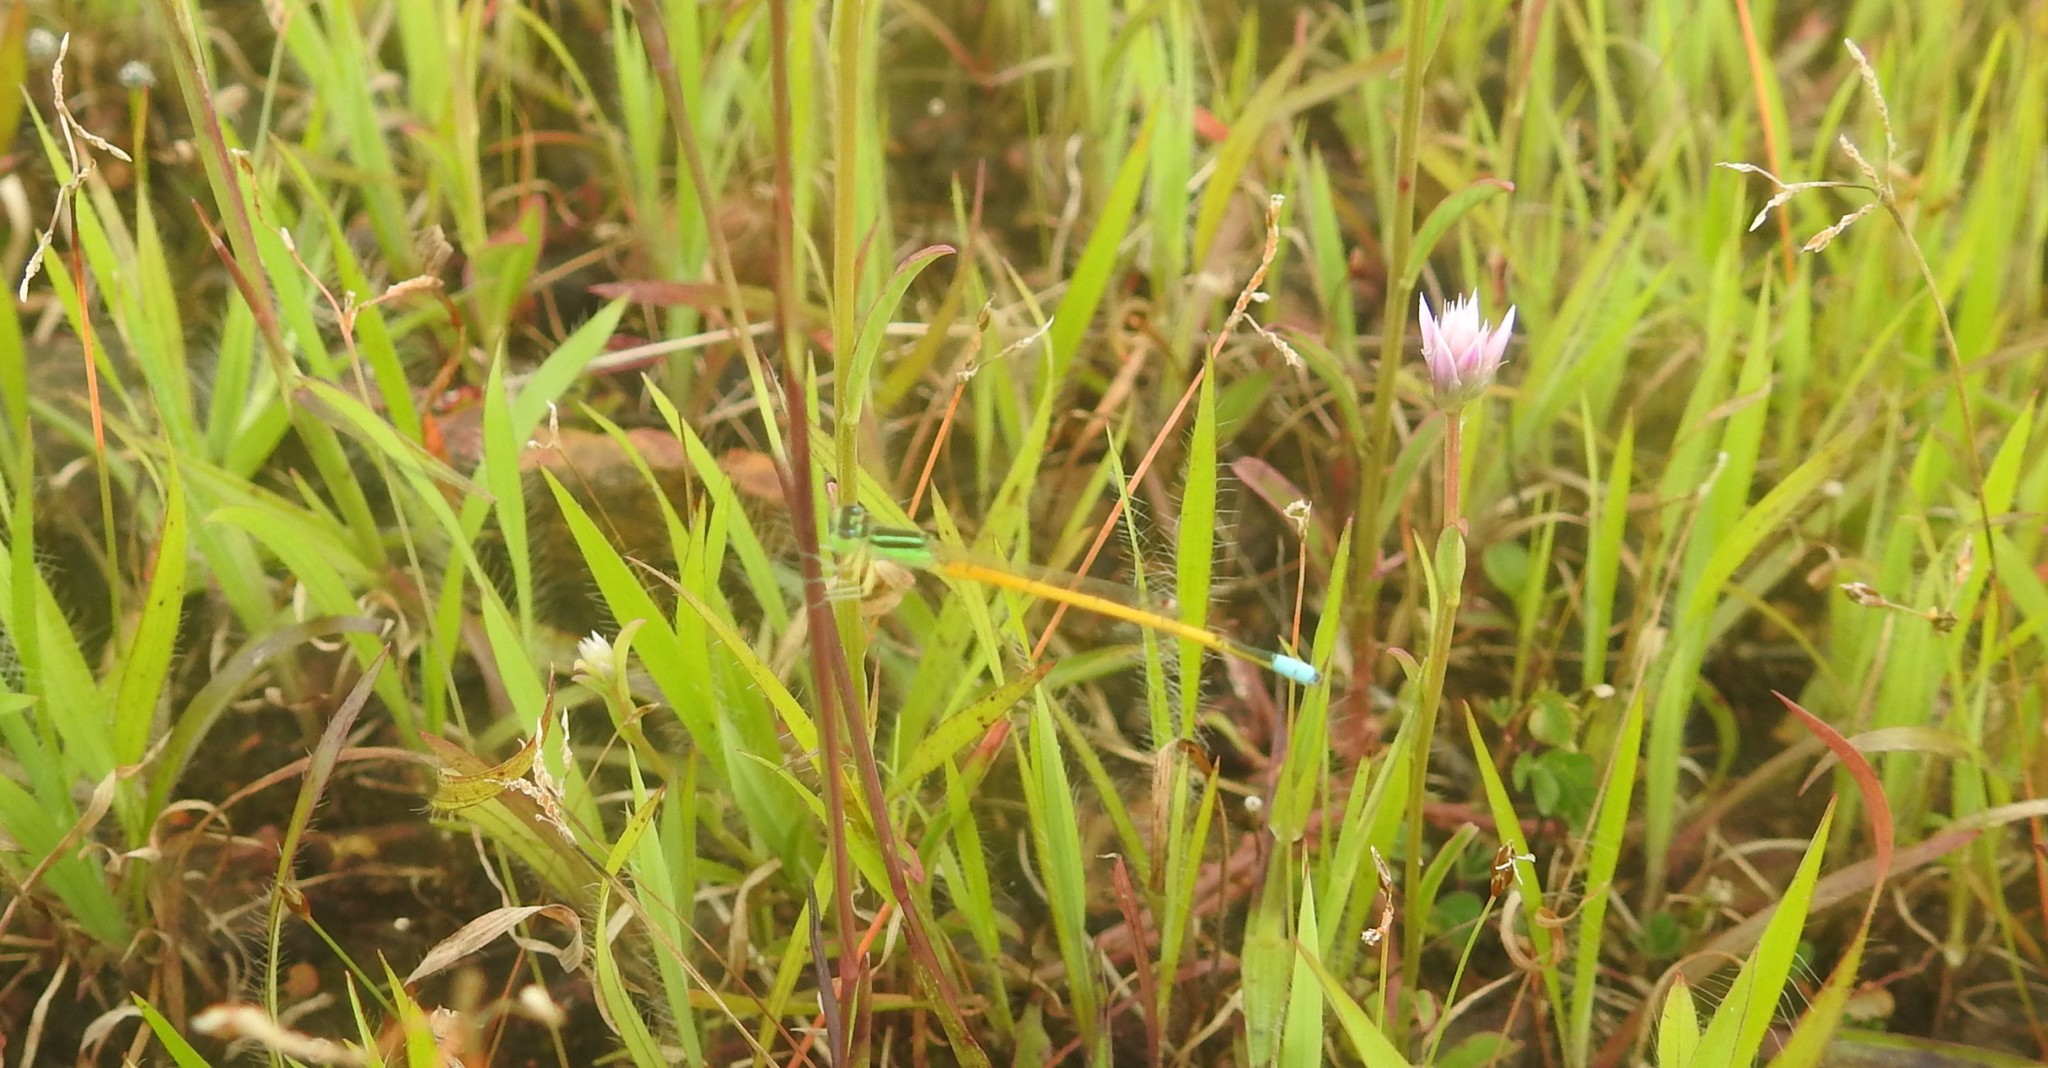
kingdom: Animalia
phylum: Arthropoda
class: Insecta
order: Odonata
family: Coenagrionidae
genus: Ischnura
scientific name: Ischnura rubilio
